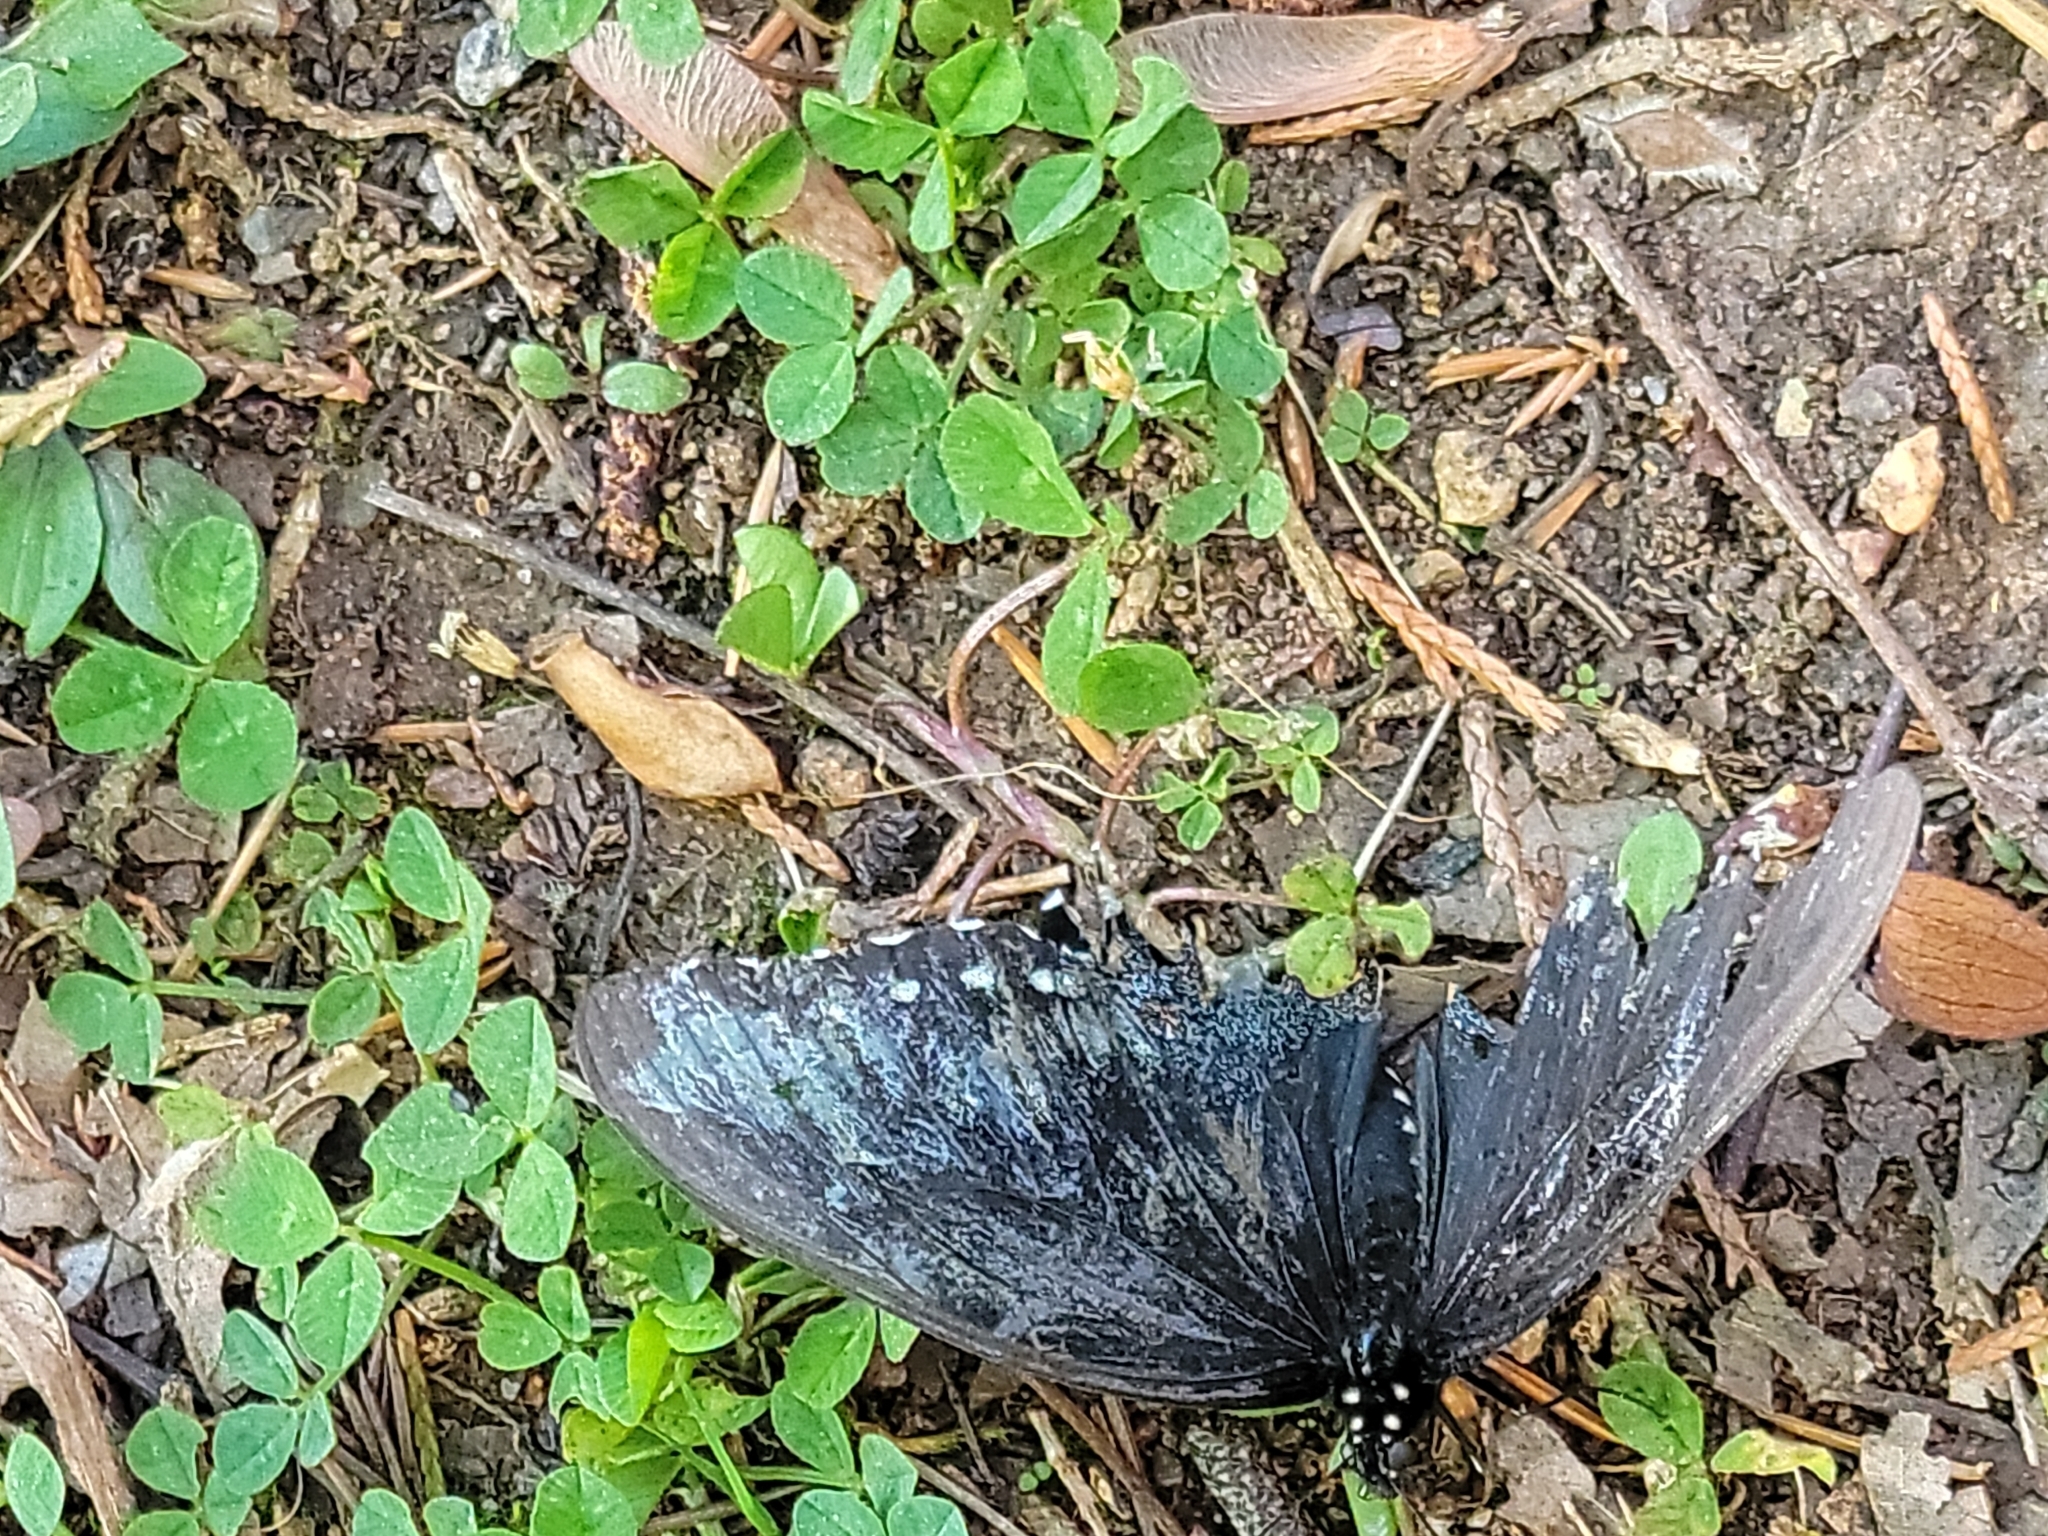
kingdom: Animalia
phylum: Arthropoda
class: Insecta
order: Lepidoptera
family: Papilionidae
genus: Battus
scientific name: Battus philenor
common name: Pipevine swallowtail
